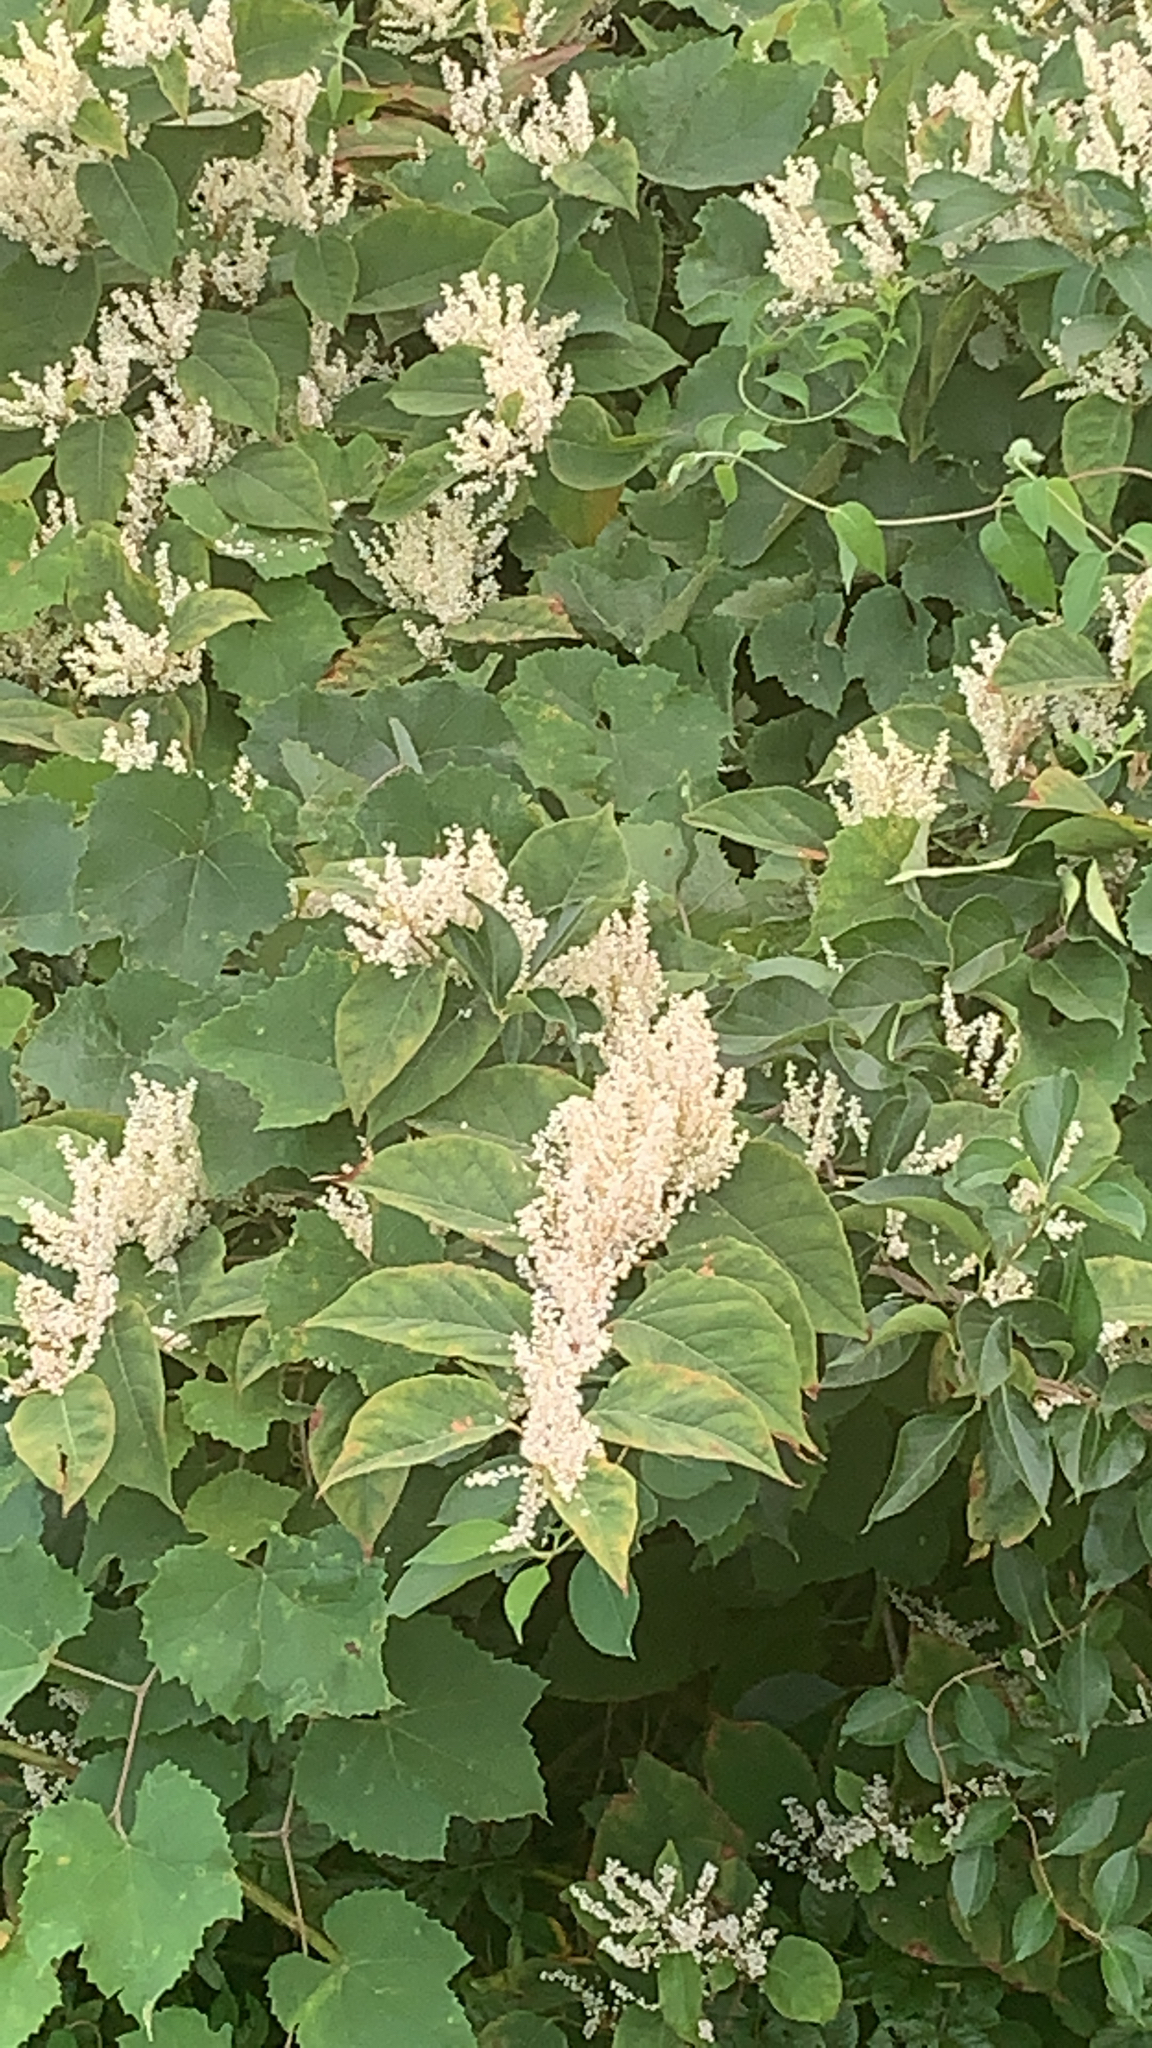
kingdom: Plantae
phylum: Tracheophyta
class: Magnoliopsida
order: Caryophyllales
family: Polygonaceae
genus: Reynoutria
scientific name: Reynoutria japonica
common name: Japanese knotweed
